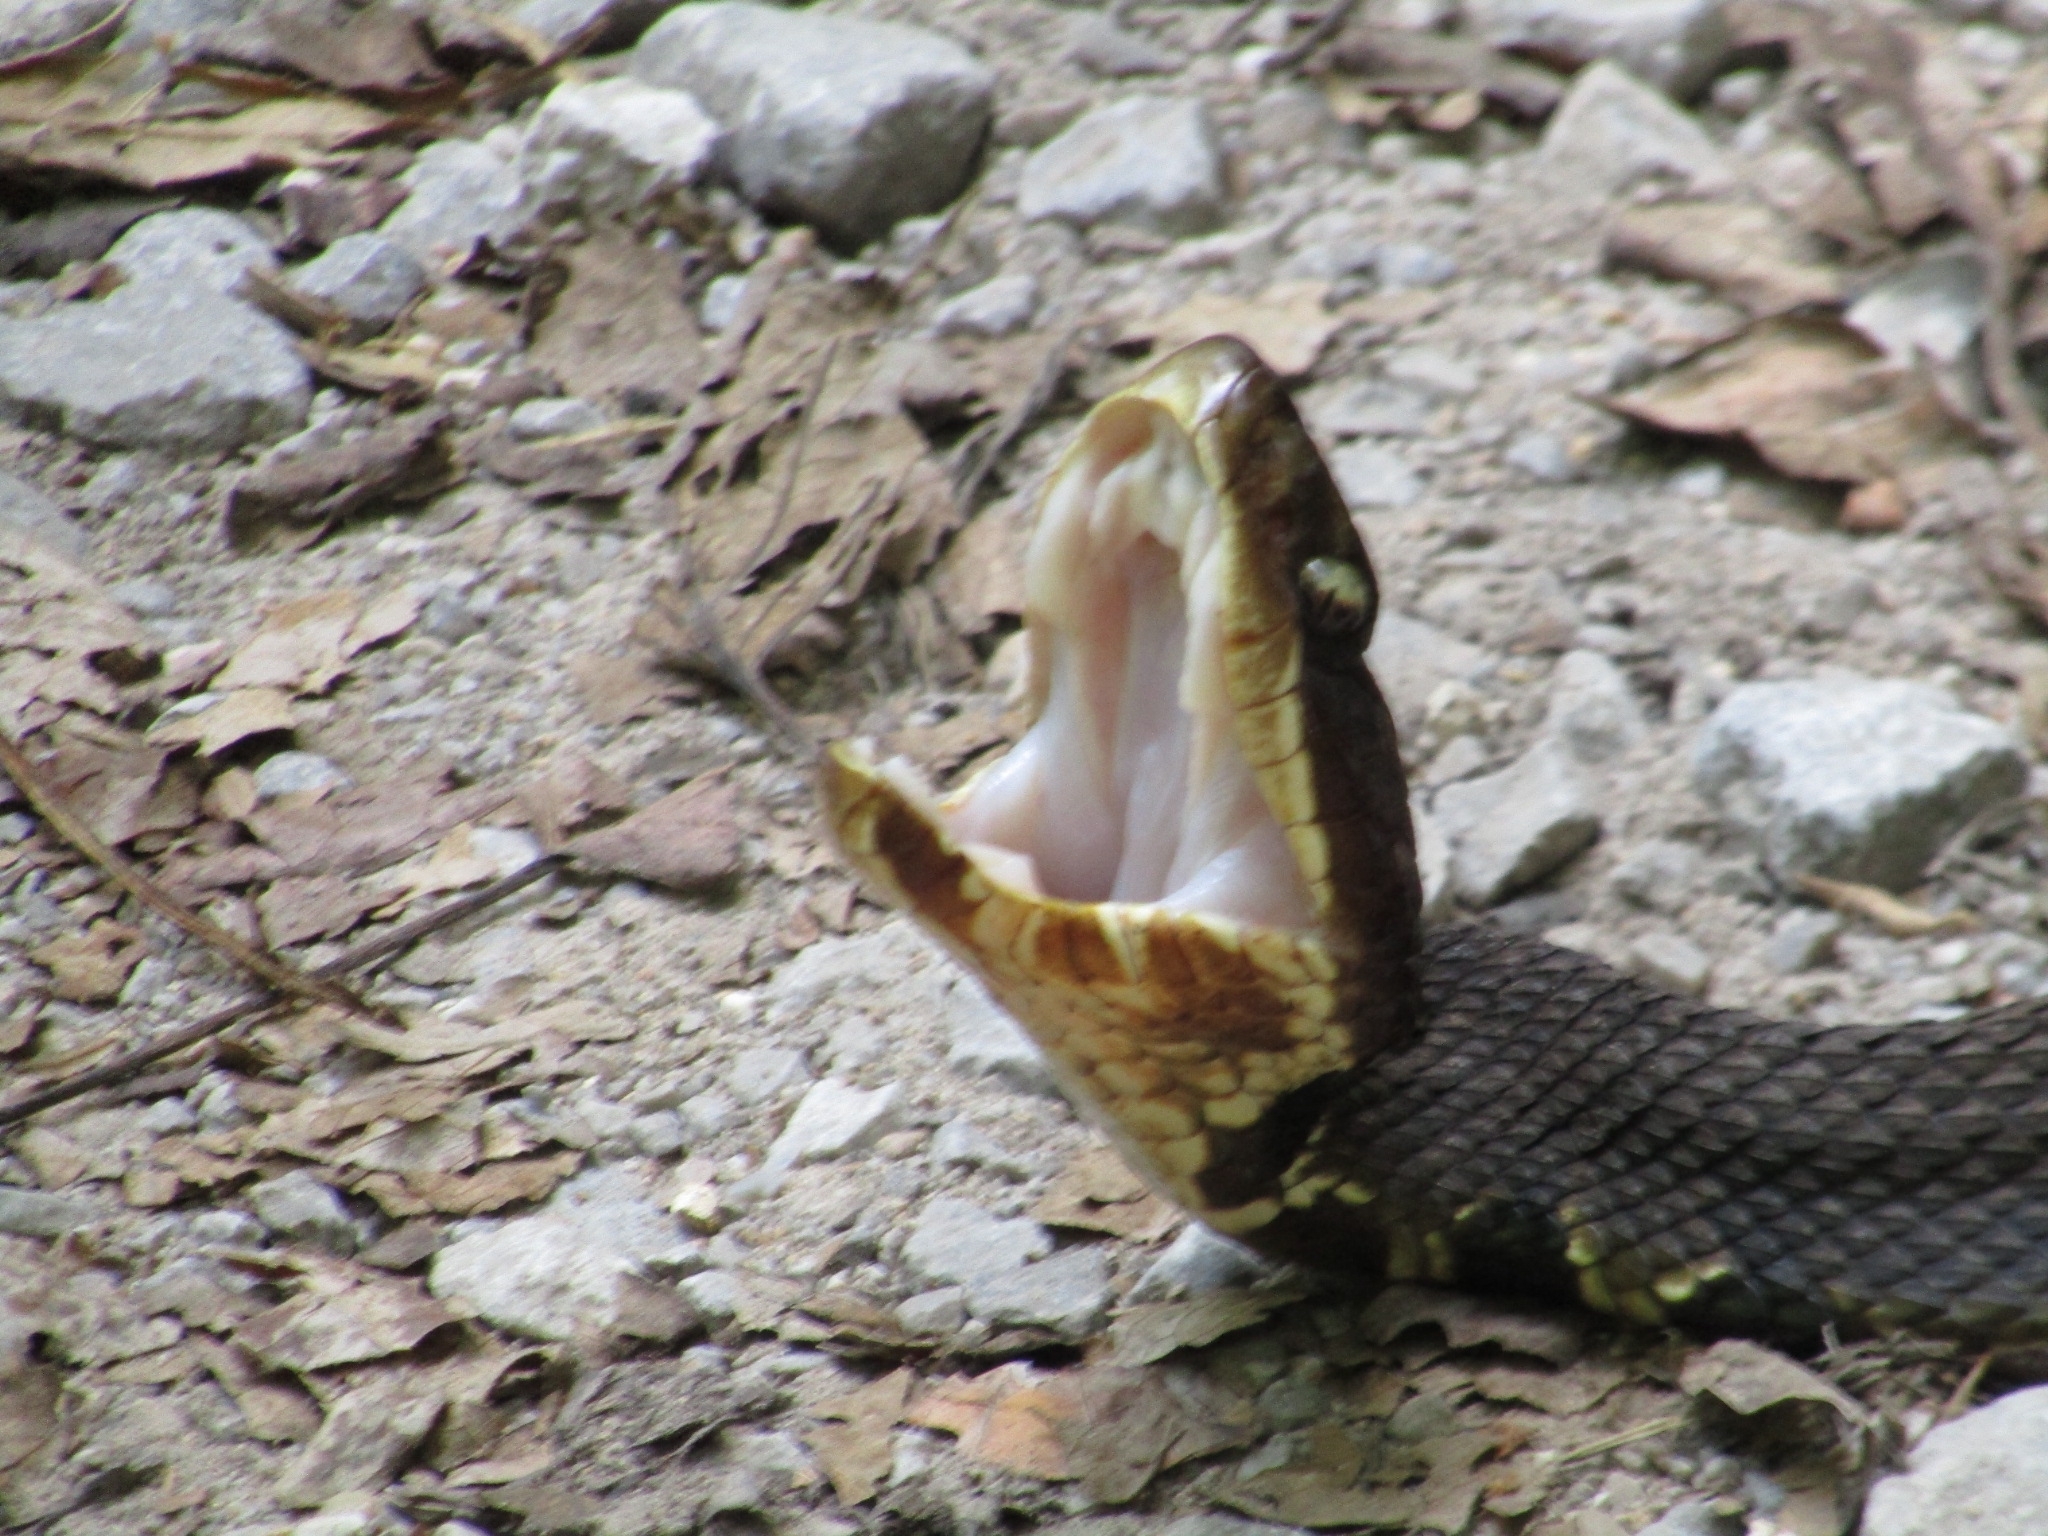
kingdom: Animalia
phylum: Chordata
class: Squamata
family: Viperidae
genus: Agkistrodon
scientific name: Agkistrodon piscivorus
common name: Cottonmouth
